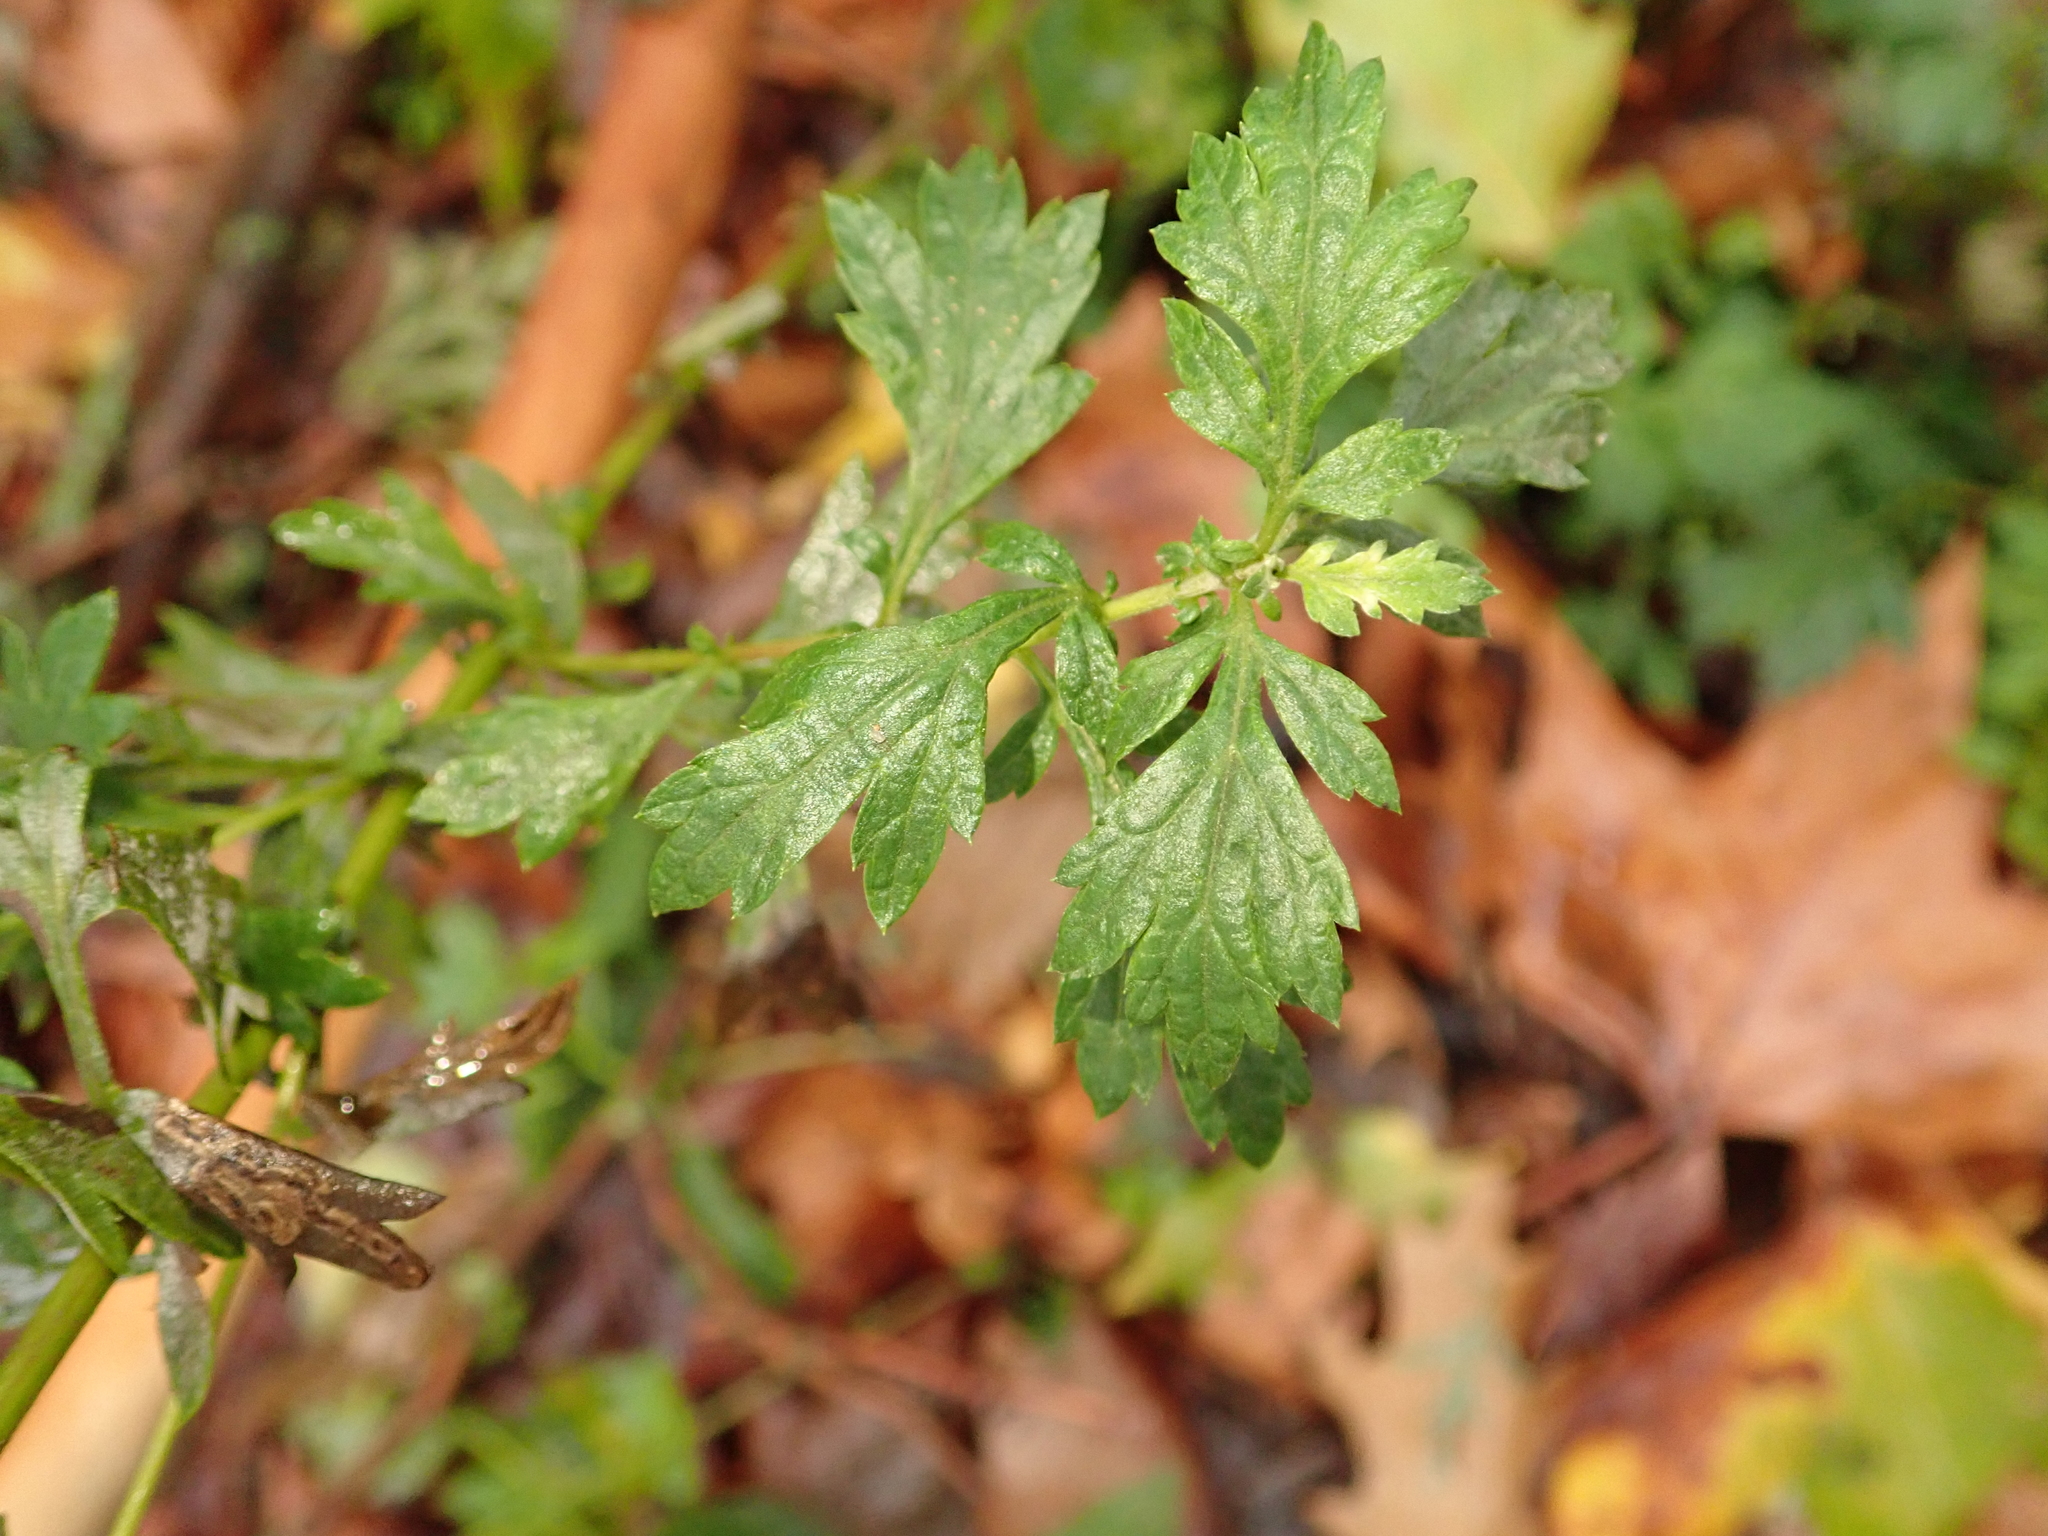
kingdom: Plantae
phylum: Tracheophyta
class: Magnoliopsida
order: Asterales
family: Asteraceae
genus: Artemisia
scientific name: Artemisia vulgaris
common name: Mugwort
